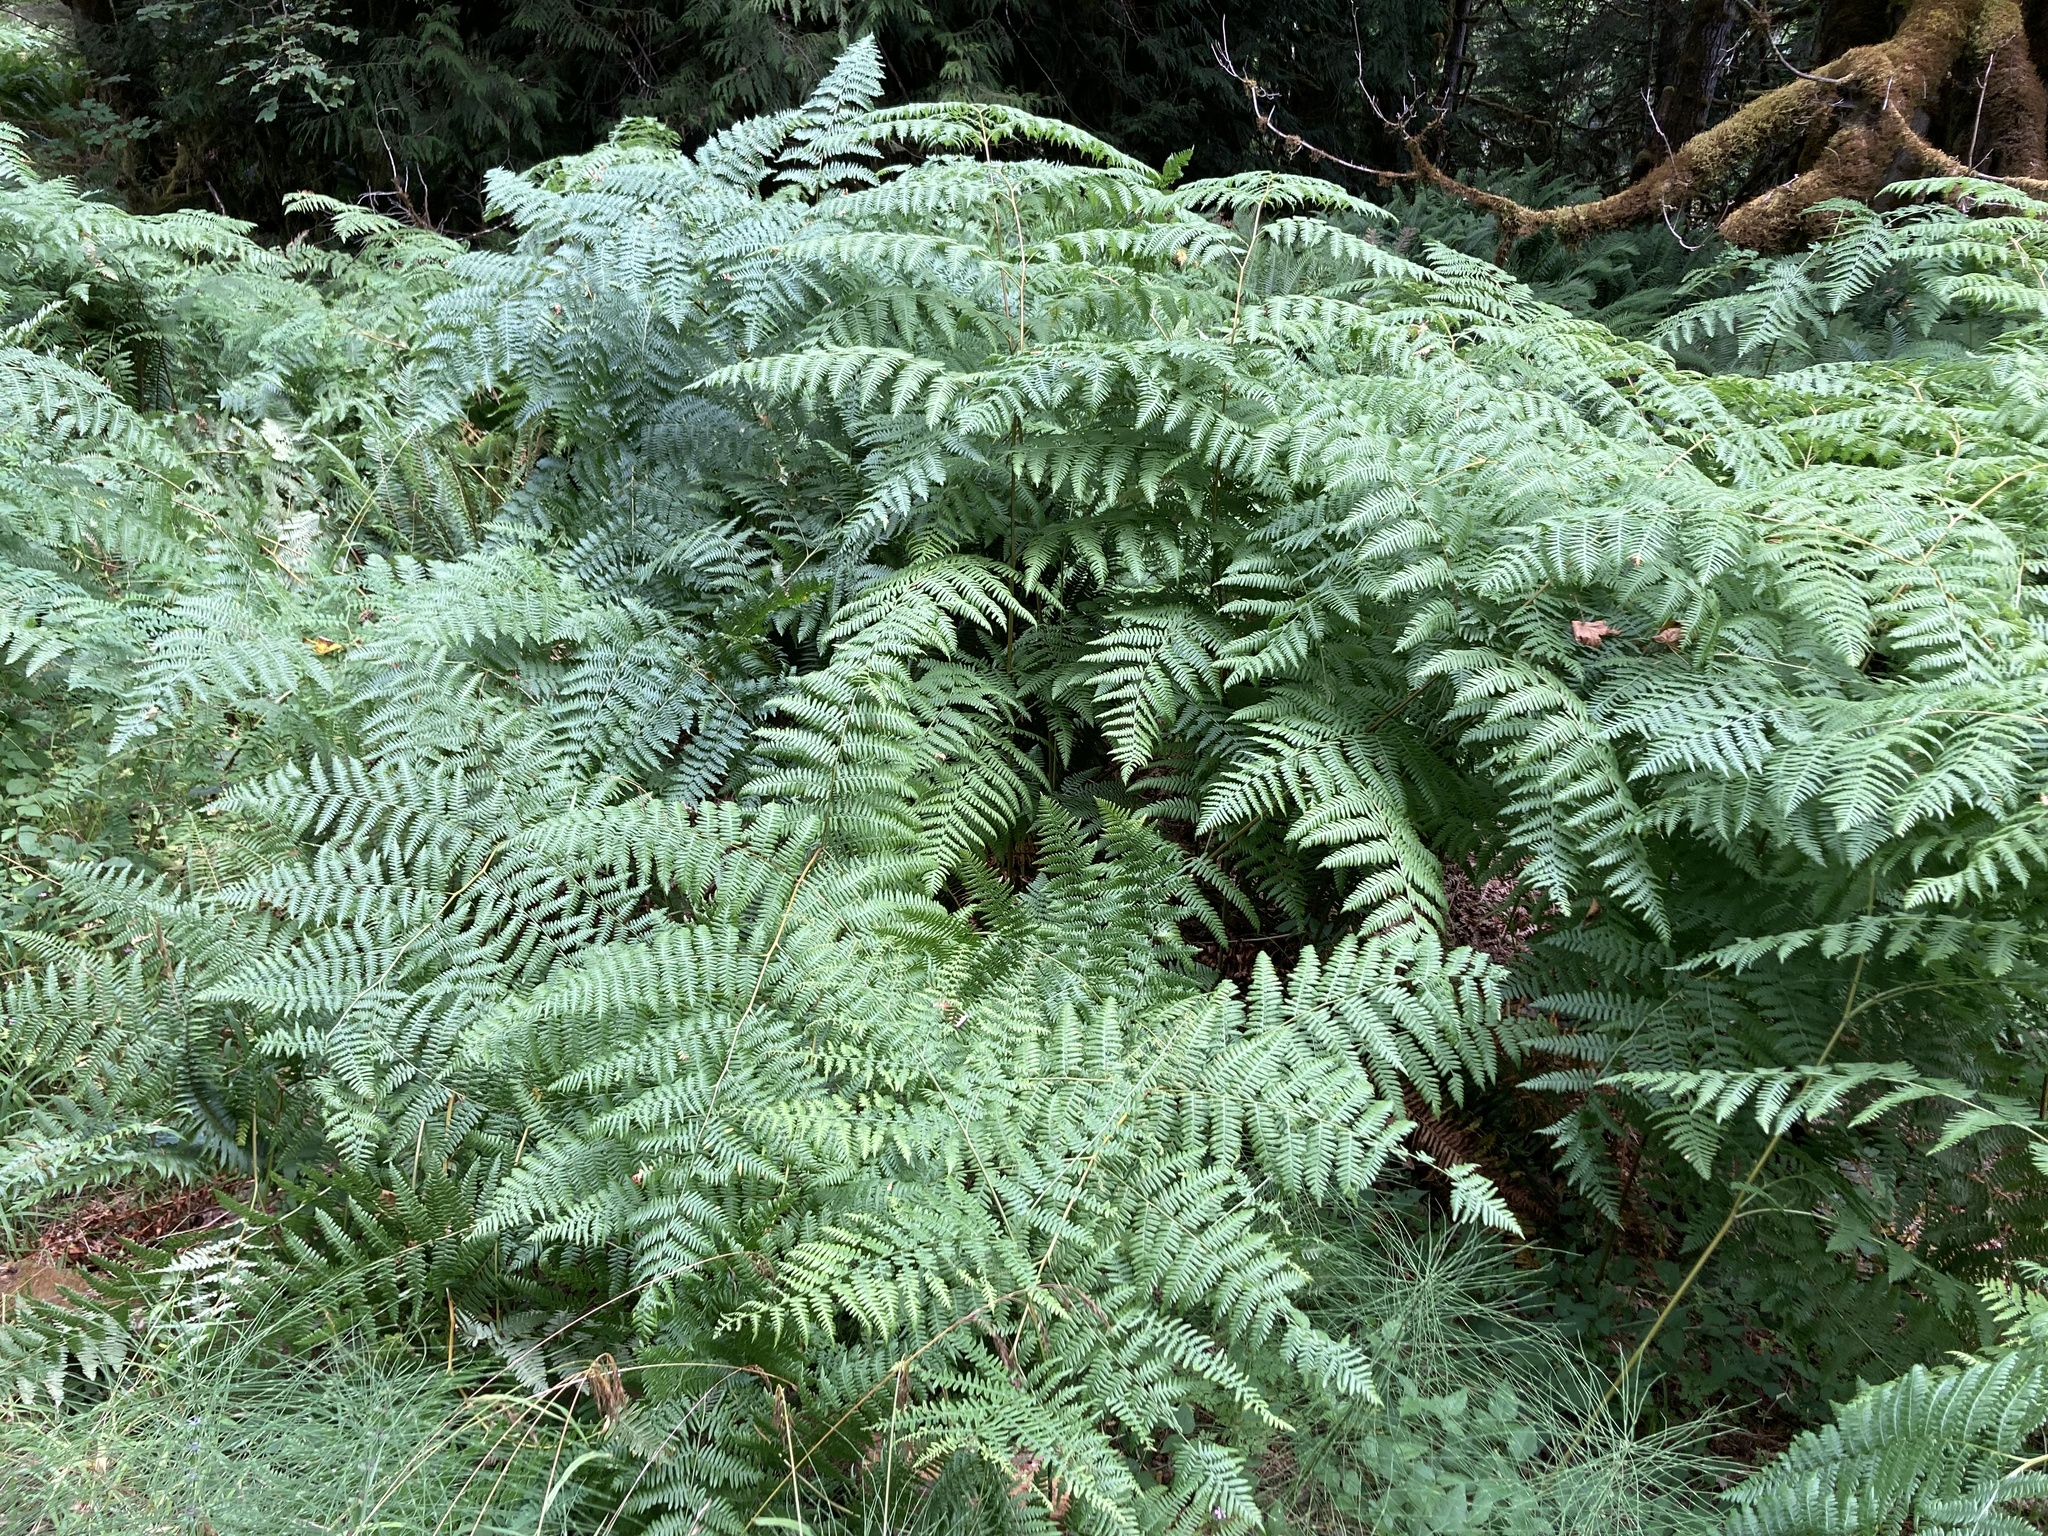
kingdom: Plantae
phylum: Tracheophyta
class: Polypodiopsida
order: Polypodiales
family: Dennstaedtiaceae
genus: Pteridium
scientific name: Pteridium aquilinum
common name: Bracken
